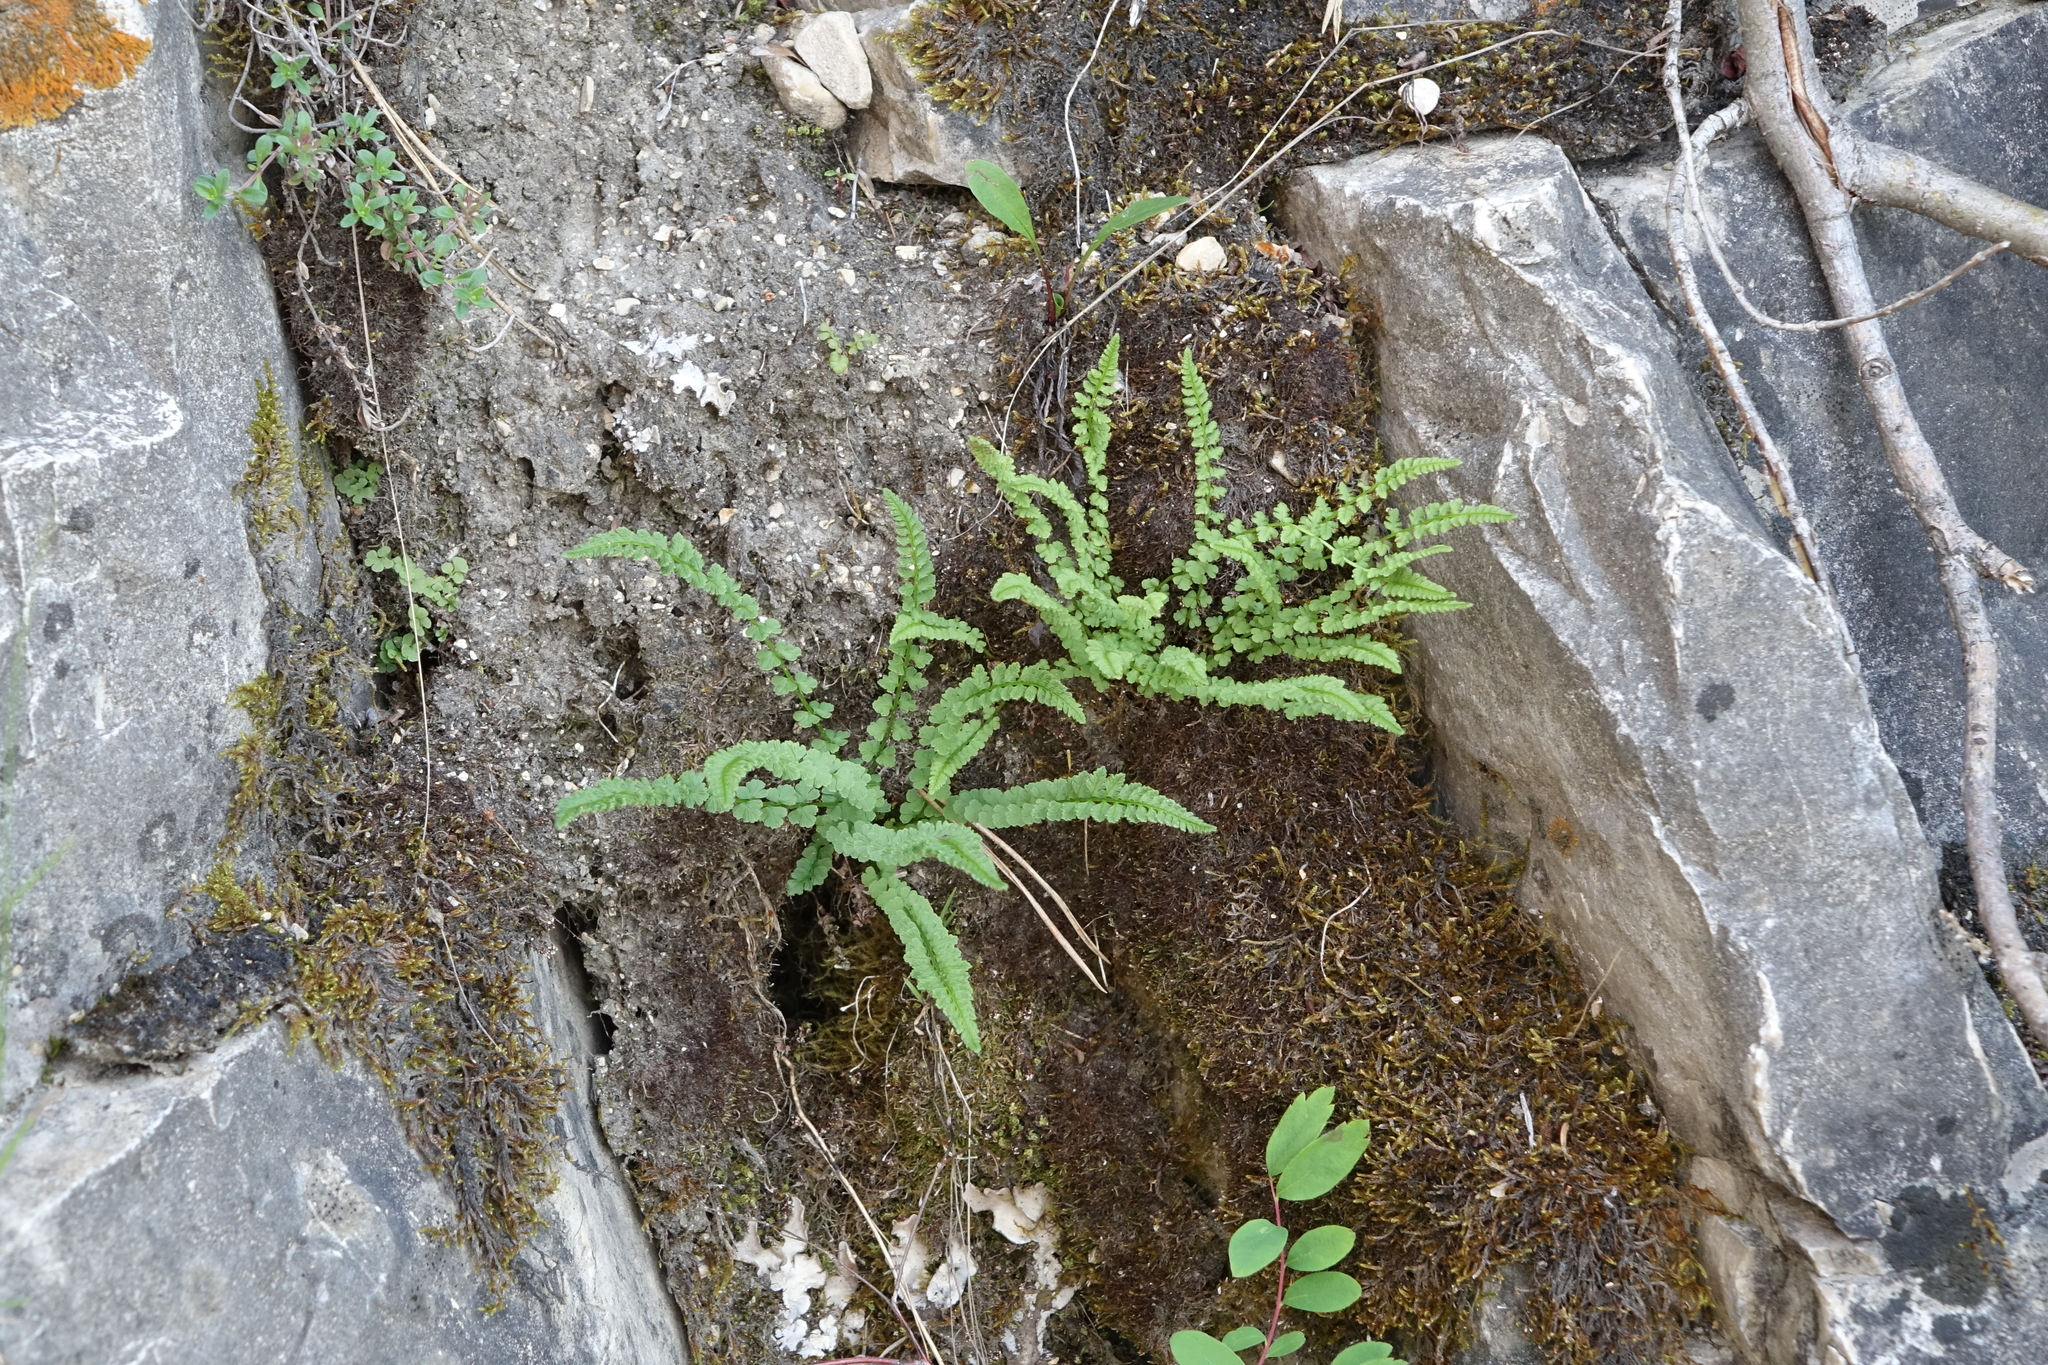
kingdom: Plantae
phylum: Tracheophyta
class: Polypodiopsida
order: Polypodiales
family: Woodsiaceae
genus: Woodsia
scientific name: Woodsia glabella
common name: Smooth woodsia
